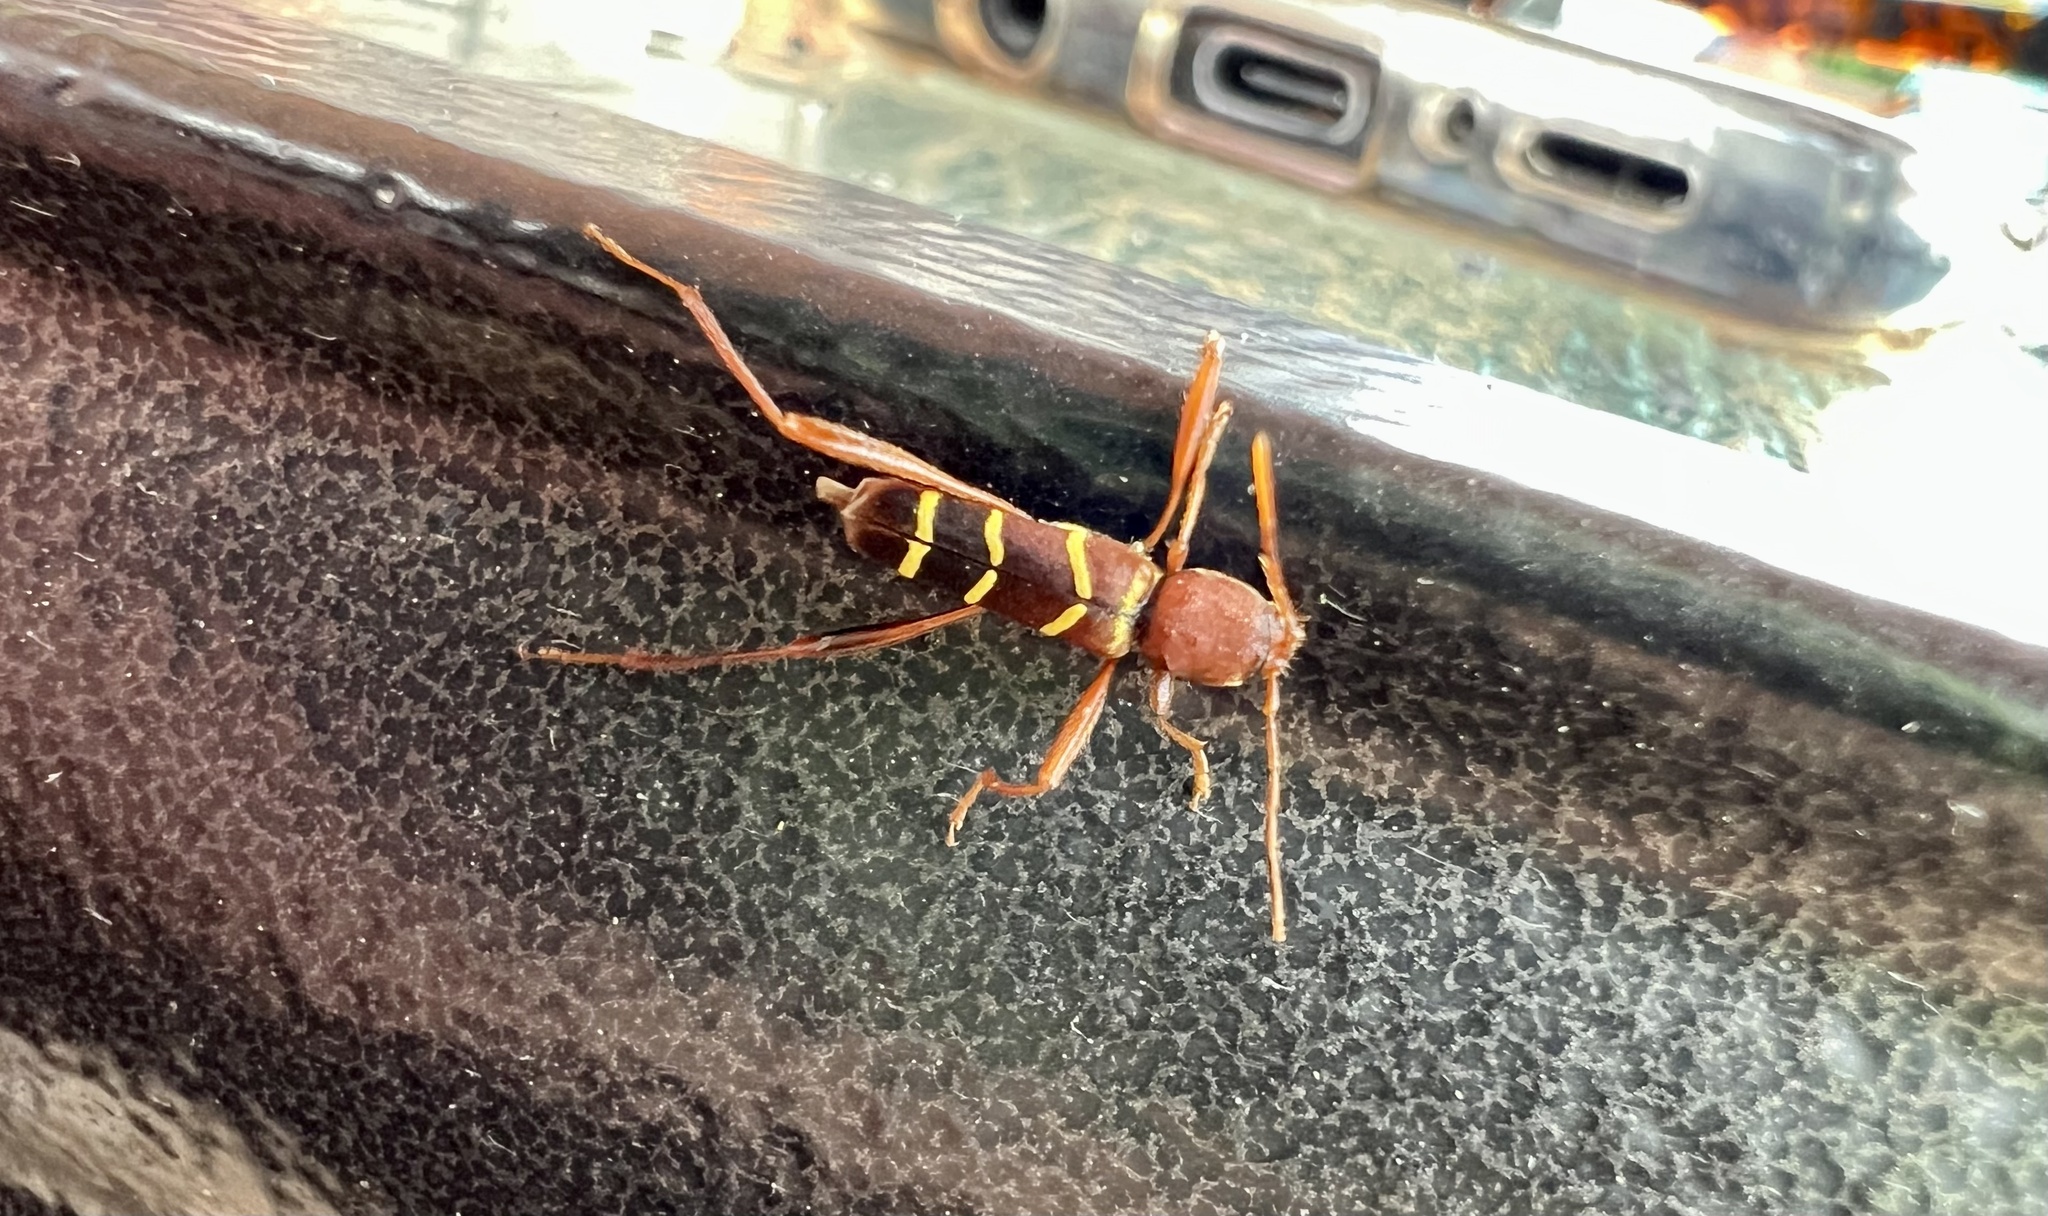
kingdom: Animalia
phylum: Arthropoda
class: Insecta
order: Coleoptera
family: Cerambycidae
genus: Neoclytus
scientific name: Neoclytus acuminatus
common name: Read-headed ash borer
